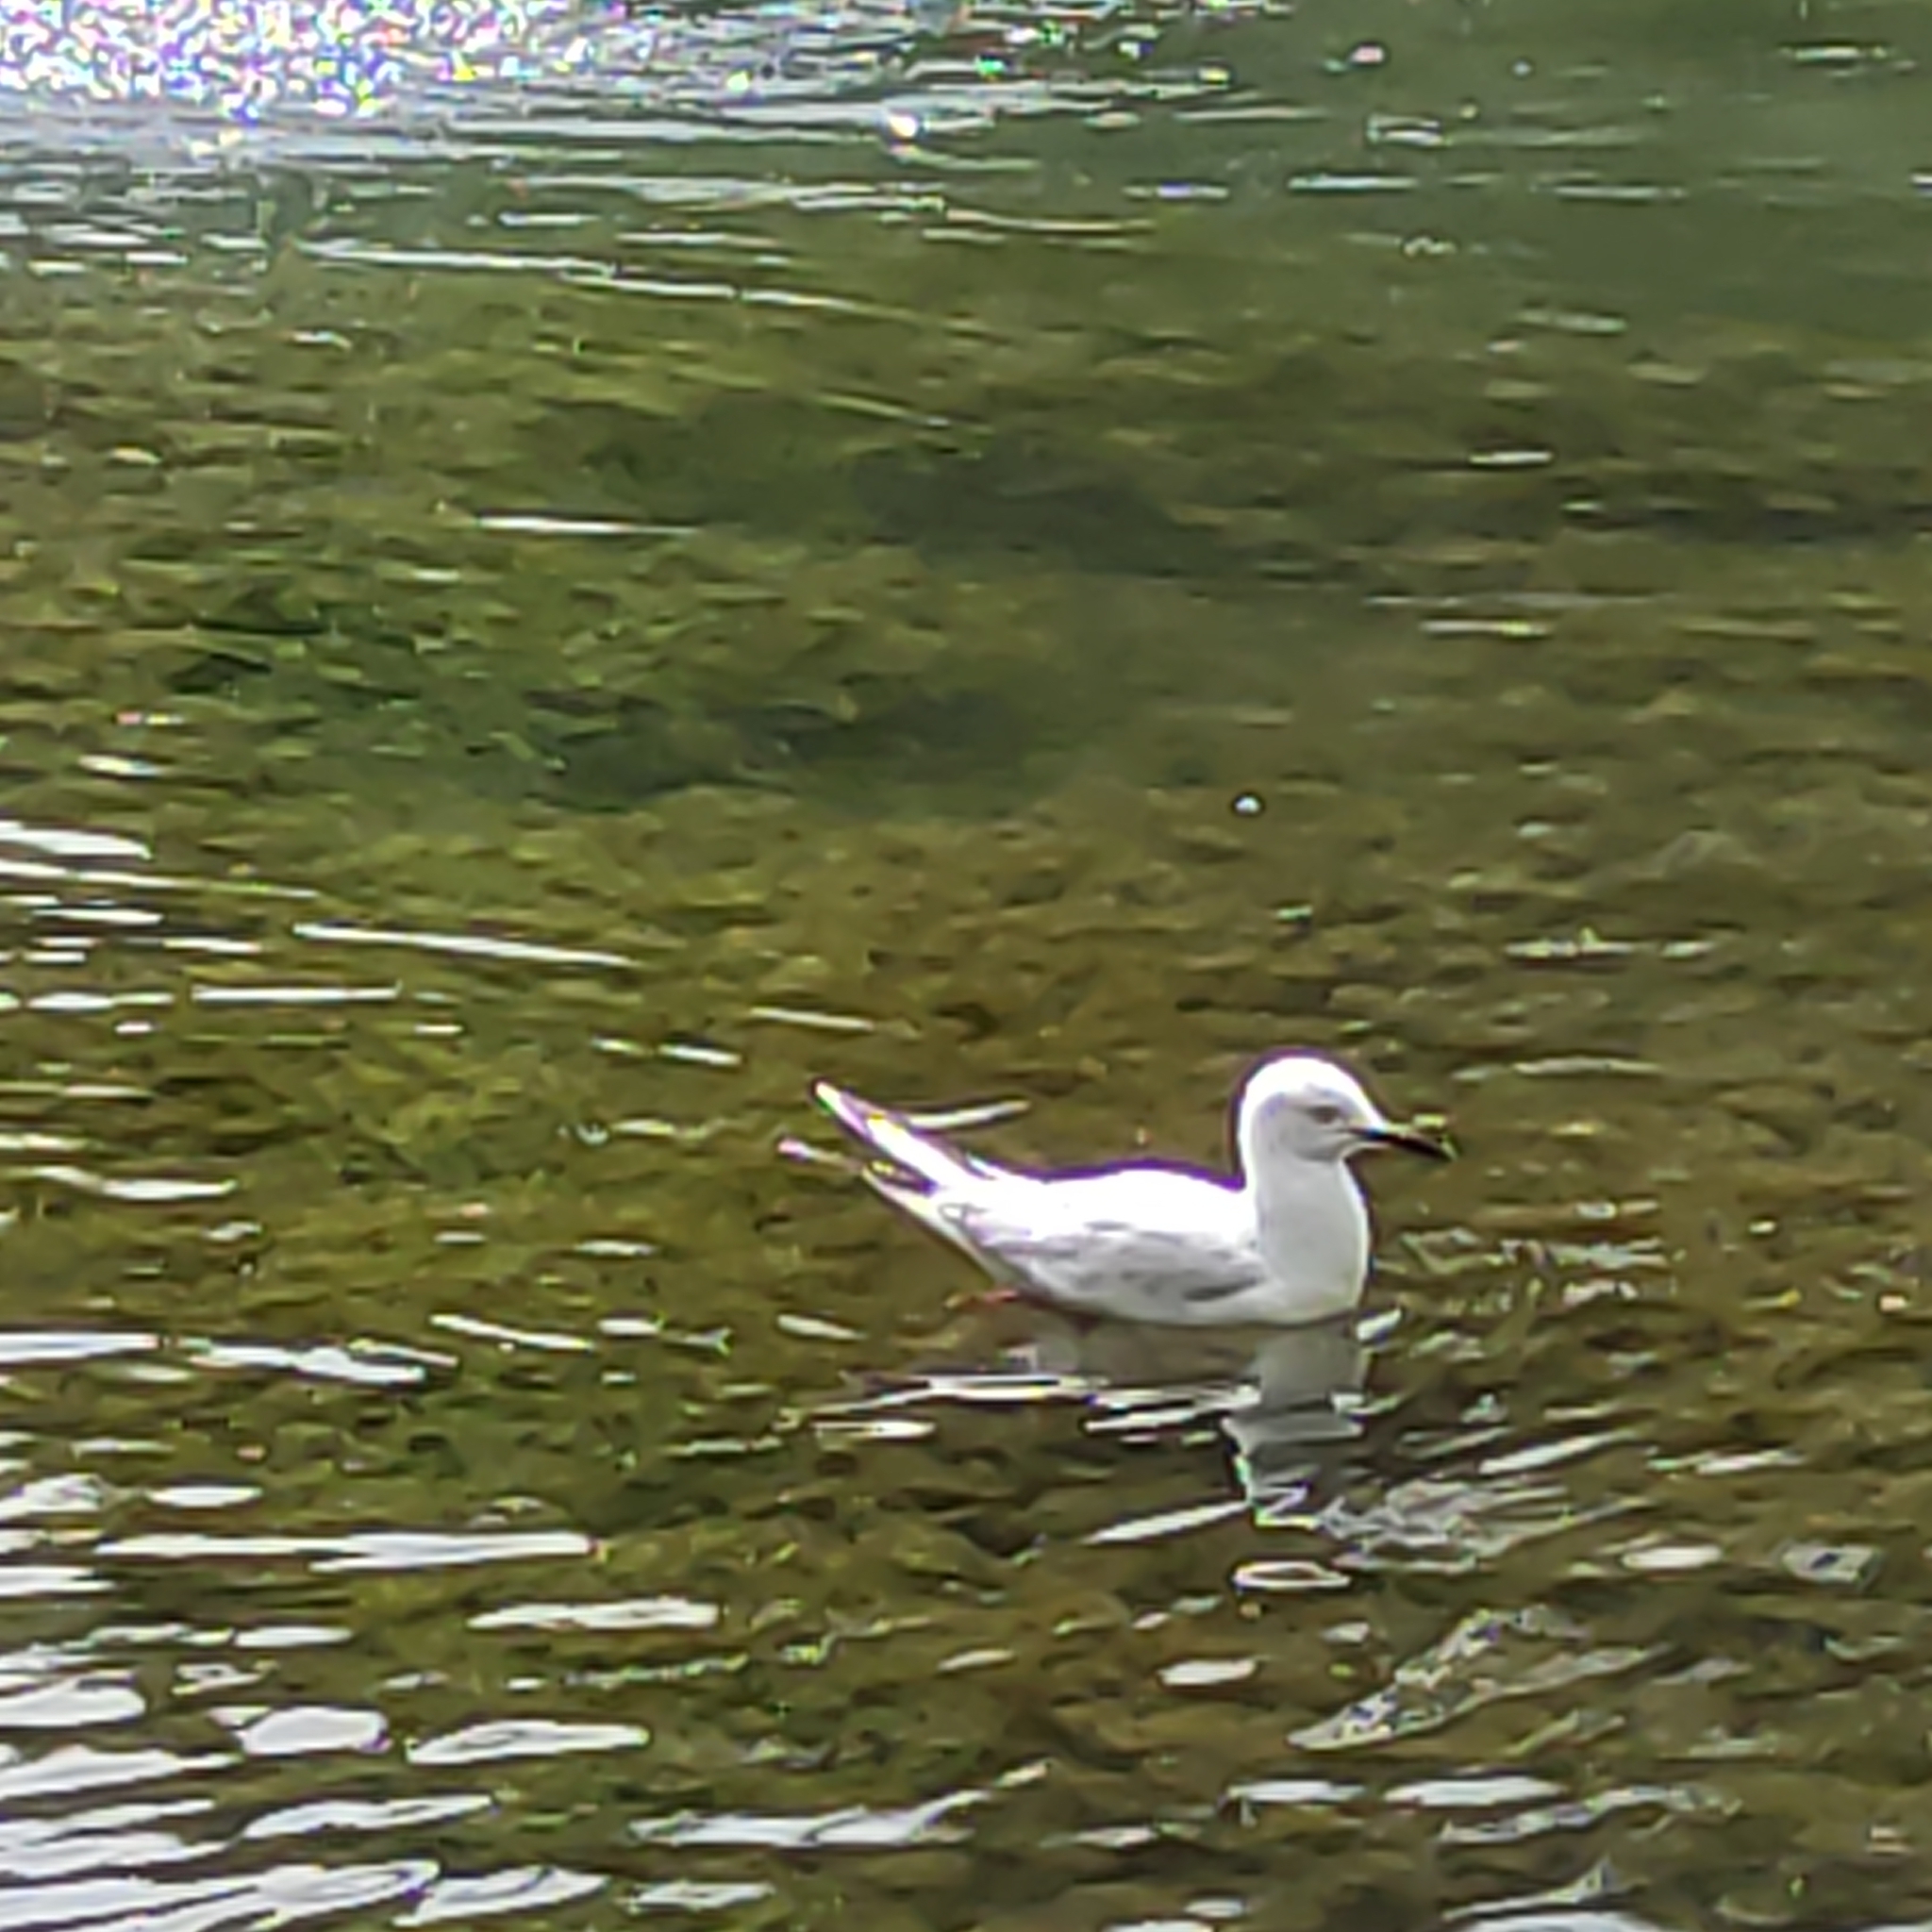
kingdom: Animalia
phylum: Chordata
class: Aves
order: Charadriiformes
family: Laridae
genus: Chroicocephalus
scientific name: Chroicocephalus bulleri
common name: Black-billed gull
